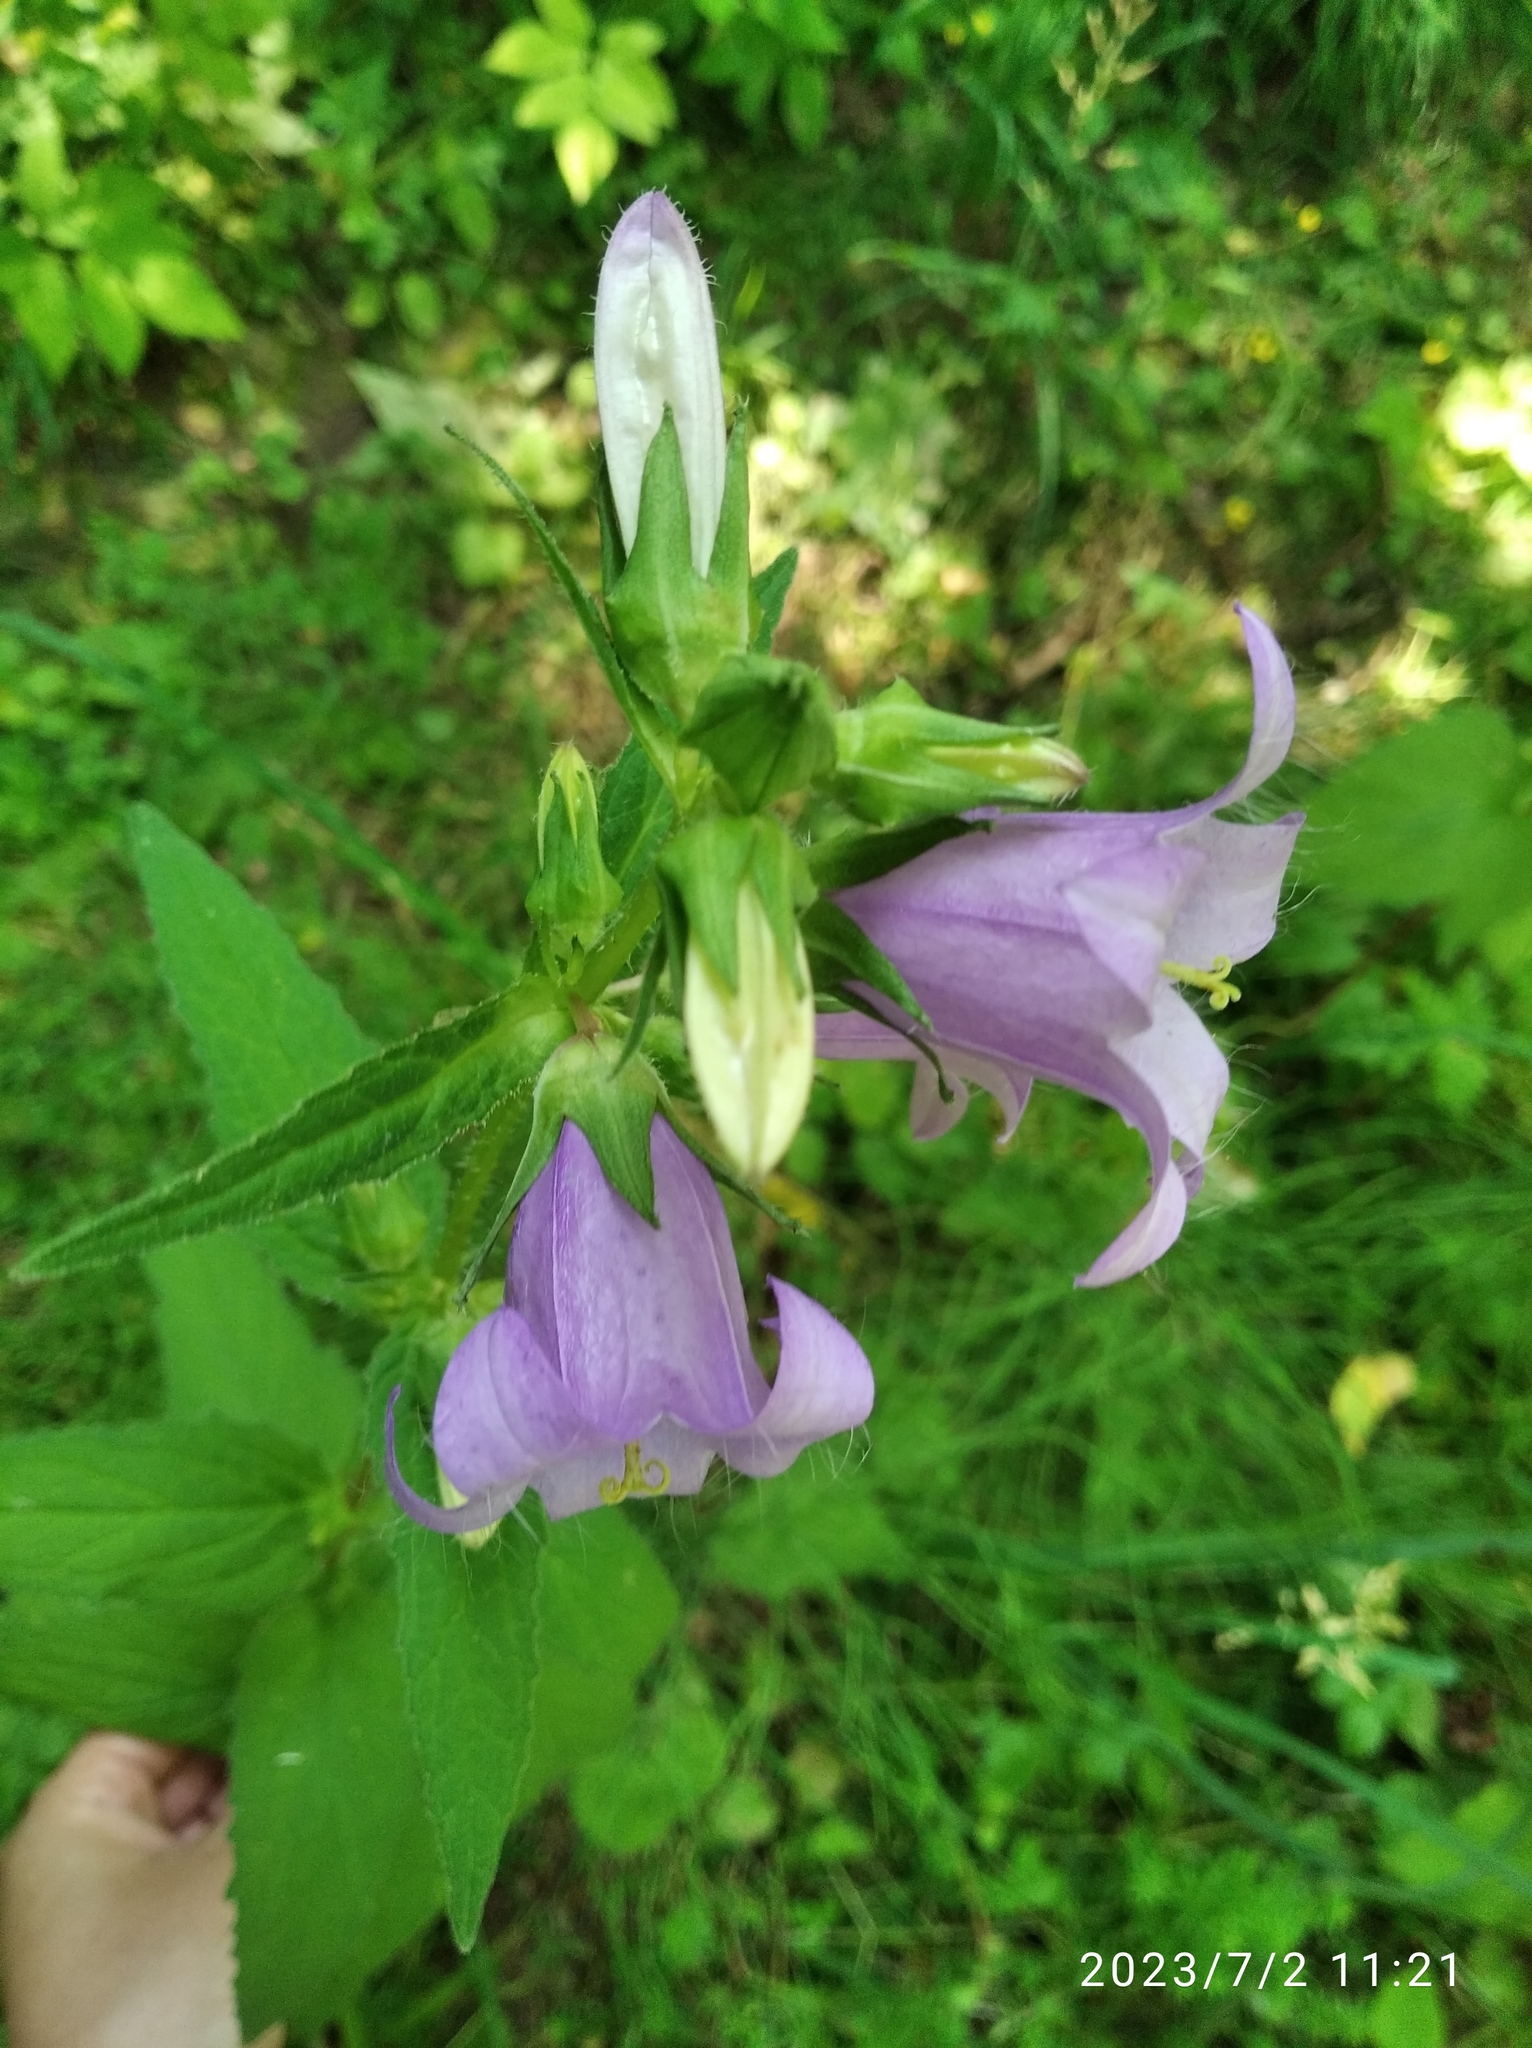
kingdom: Plantae
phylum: Tracheophyta
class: Magnoliopsida
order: Asterales
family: Campanulaceae
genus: Campanula
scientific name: Campanula trachelium
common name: Nettle-leaved bellflower
